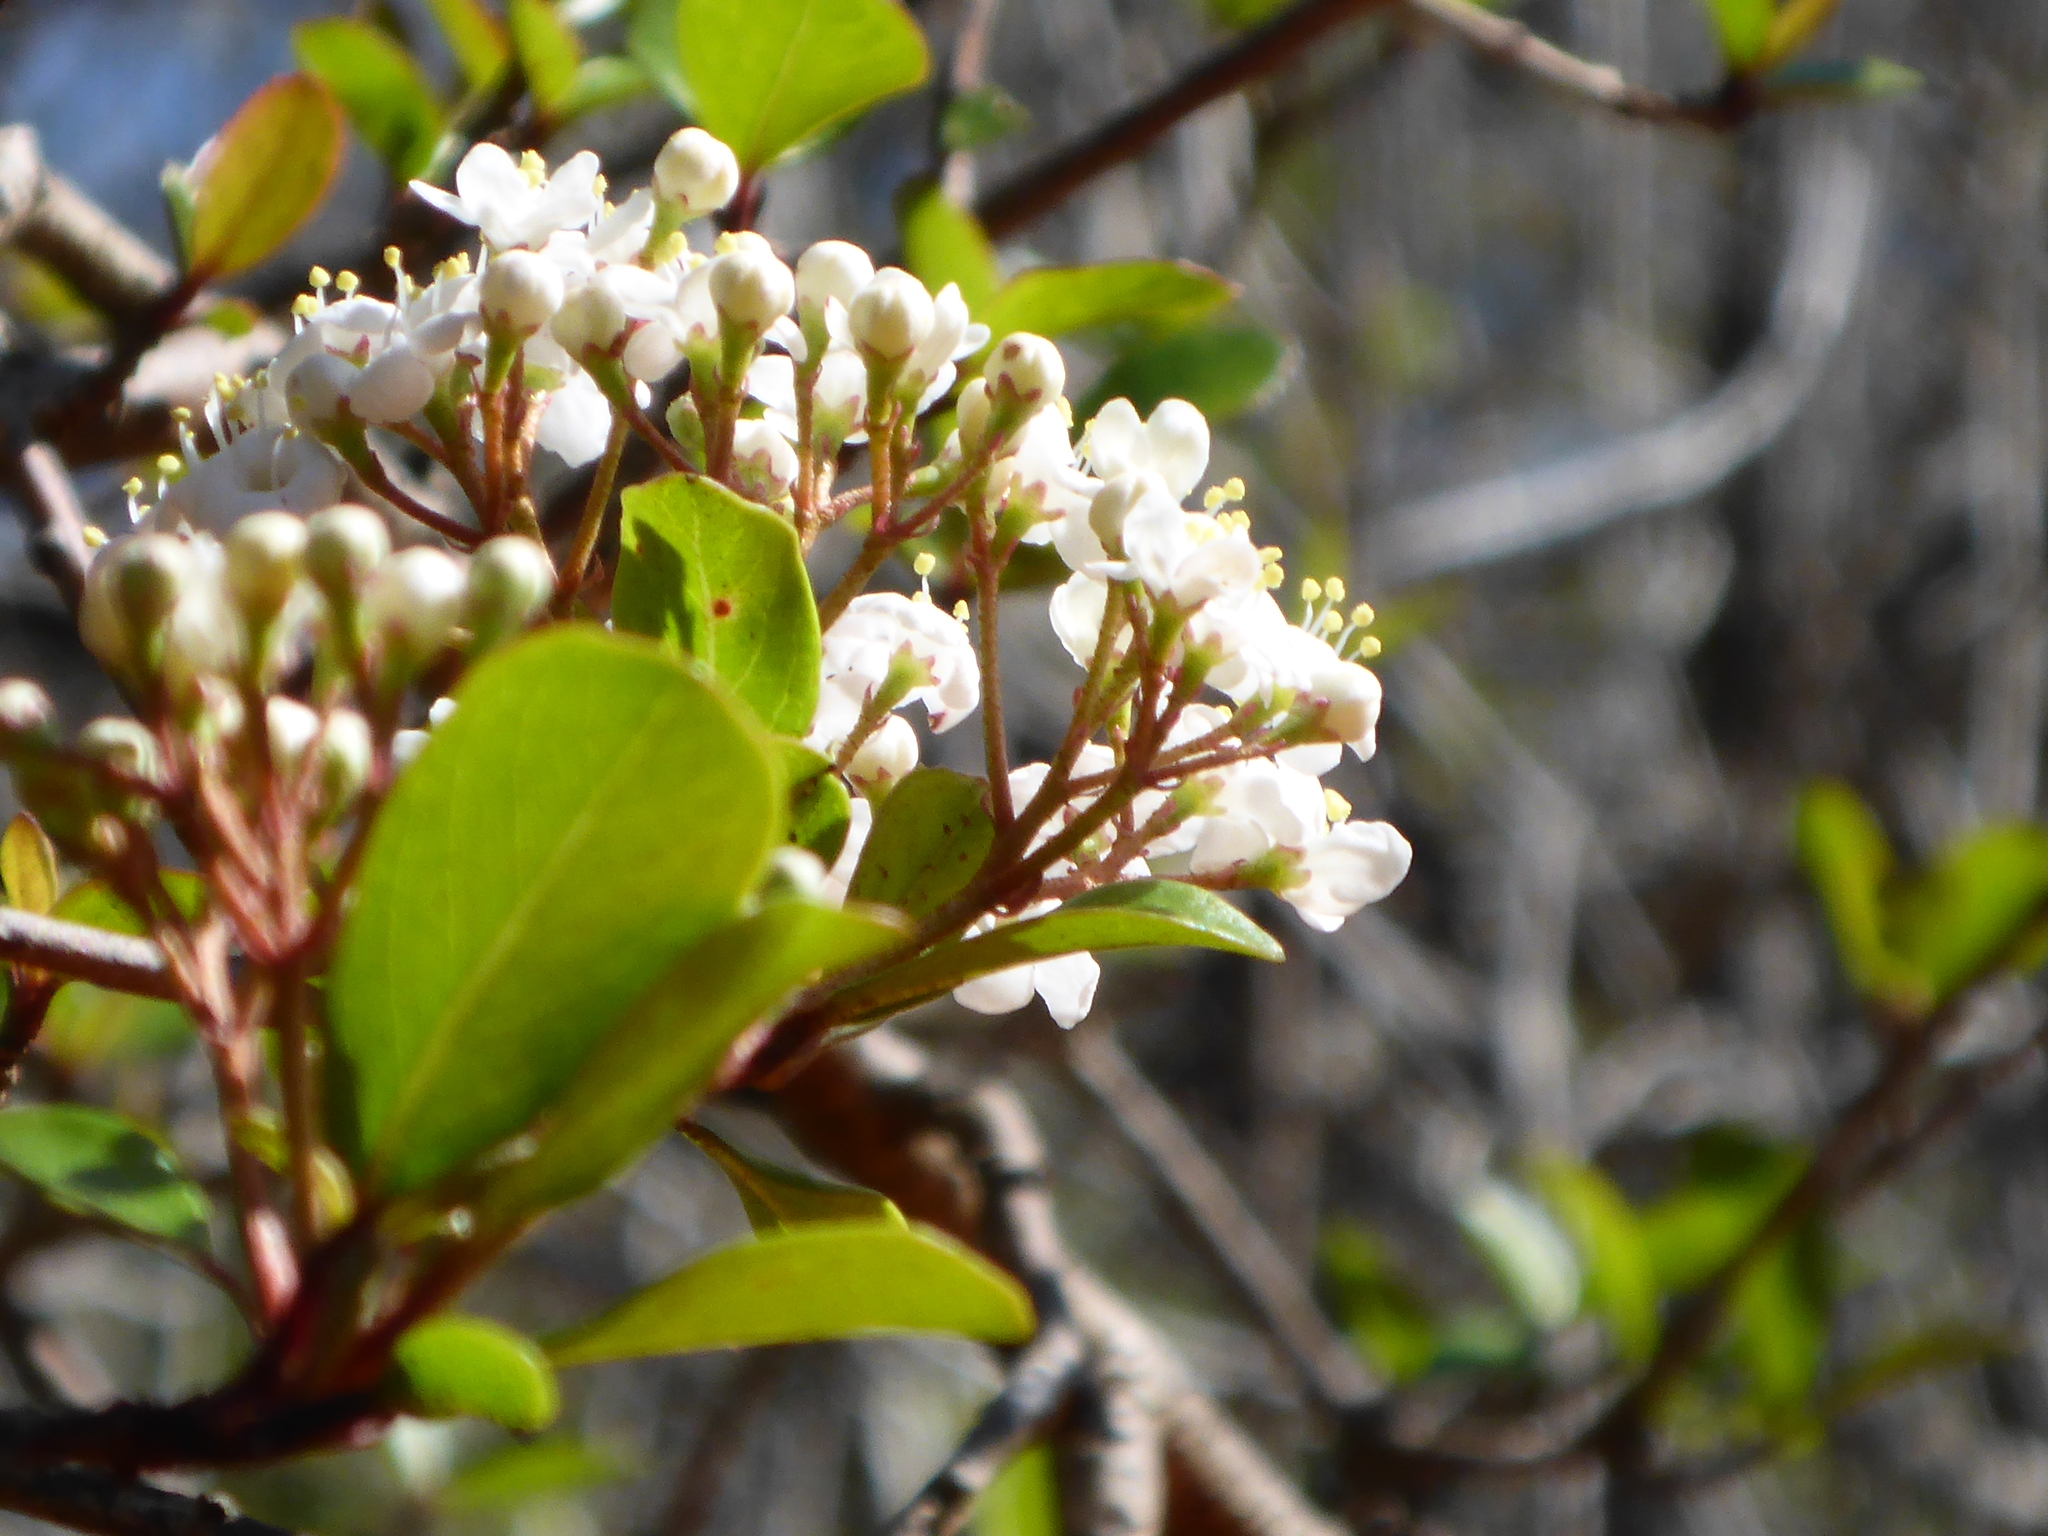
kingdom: Plantae
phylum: Tracheophyta
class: Magnoliopsida
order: Dipsacales
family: Viburnaceae
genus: Viburnum
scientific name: Viburnum obovatum
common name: Walter's viburnum
